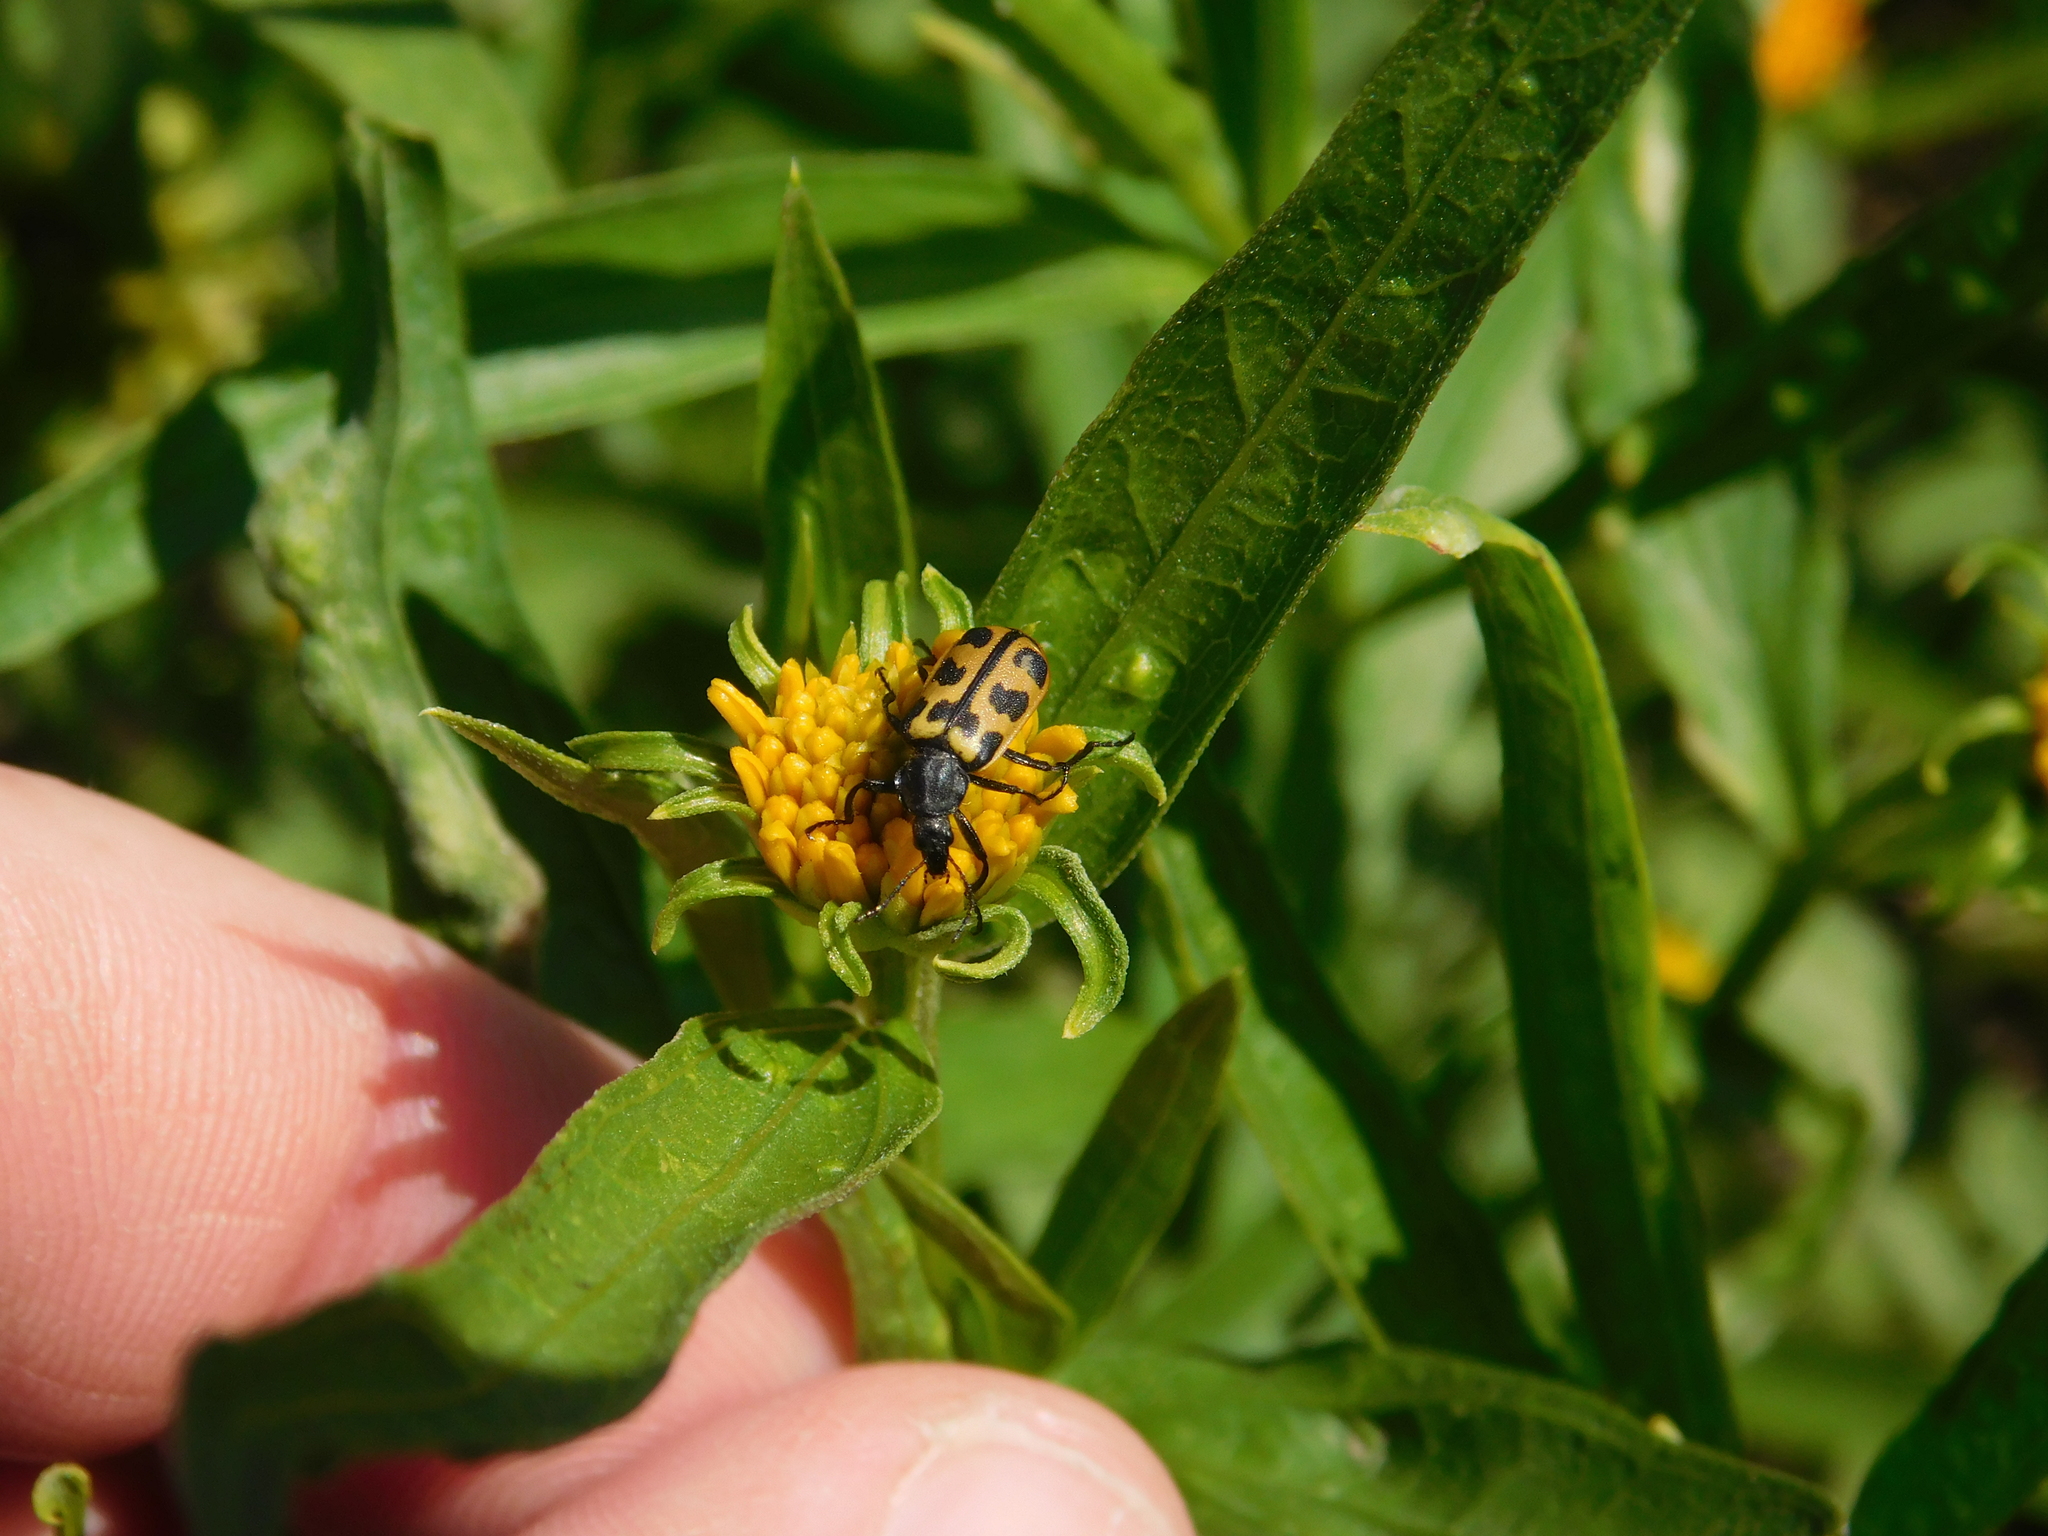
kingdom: Animalia
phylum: Arthropoda
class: Insecta
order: Coleoptera
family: Melyridae
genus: Astylus
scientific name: Astylus atromaculatus
